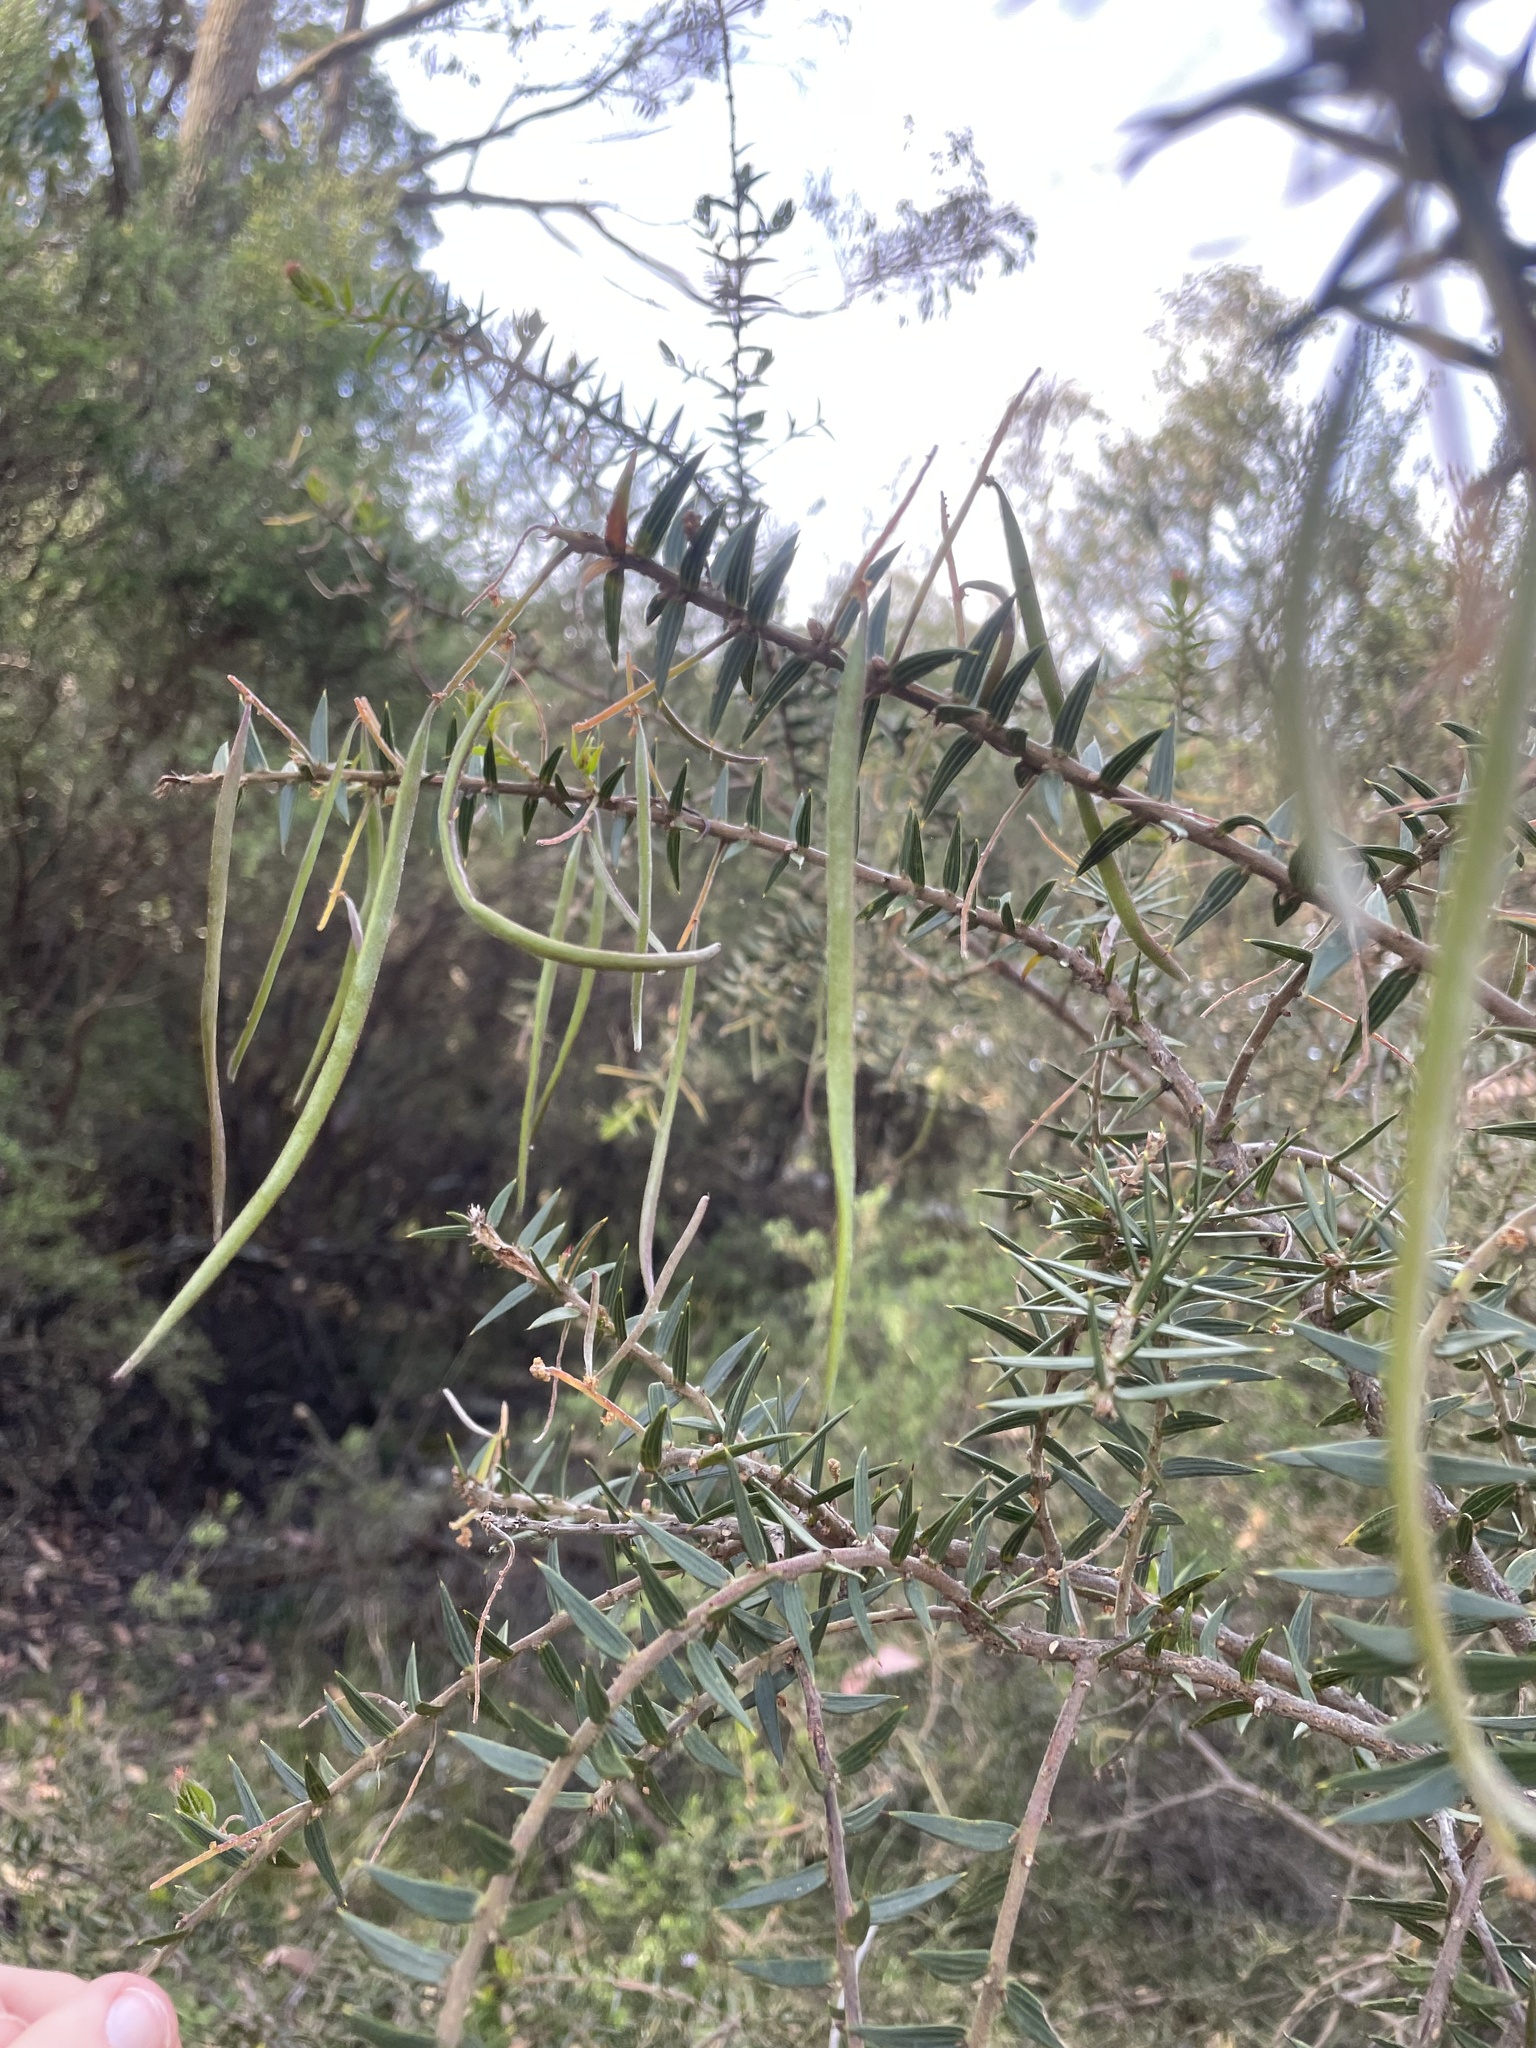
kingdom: Plantae
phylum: Tracheophyta
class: Magnoliopsida
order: Fabales
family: Fabaceae
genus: Acacia
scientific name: Acacia oxycedrus
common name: Spike wattle
